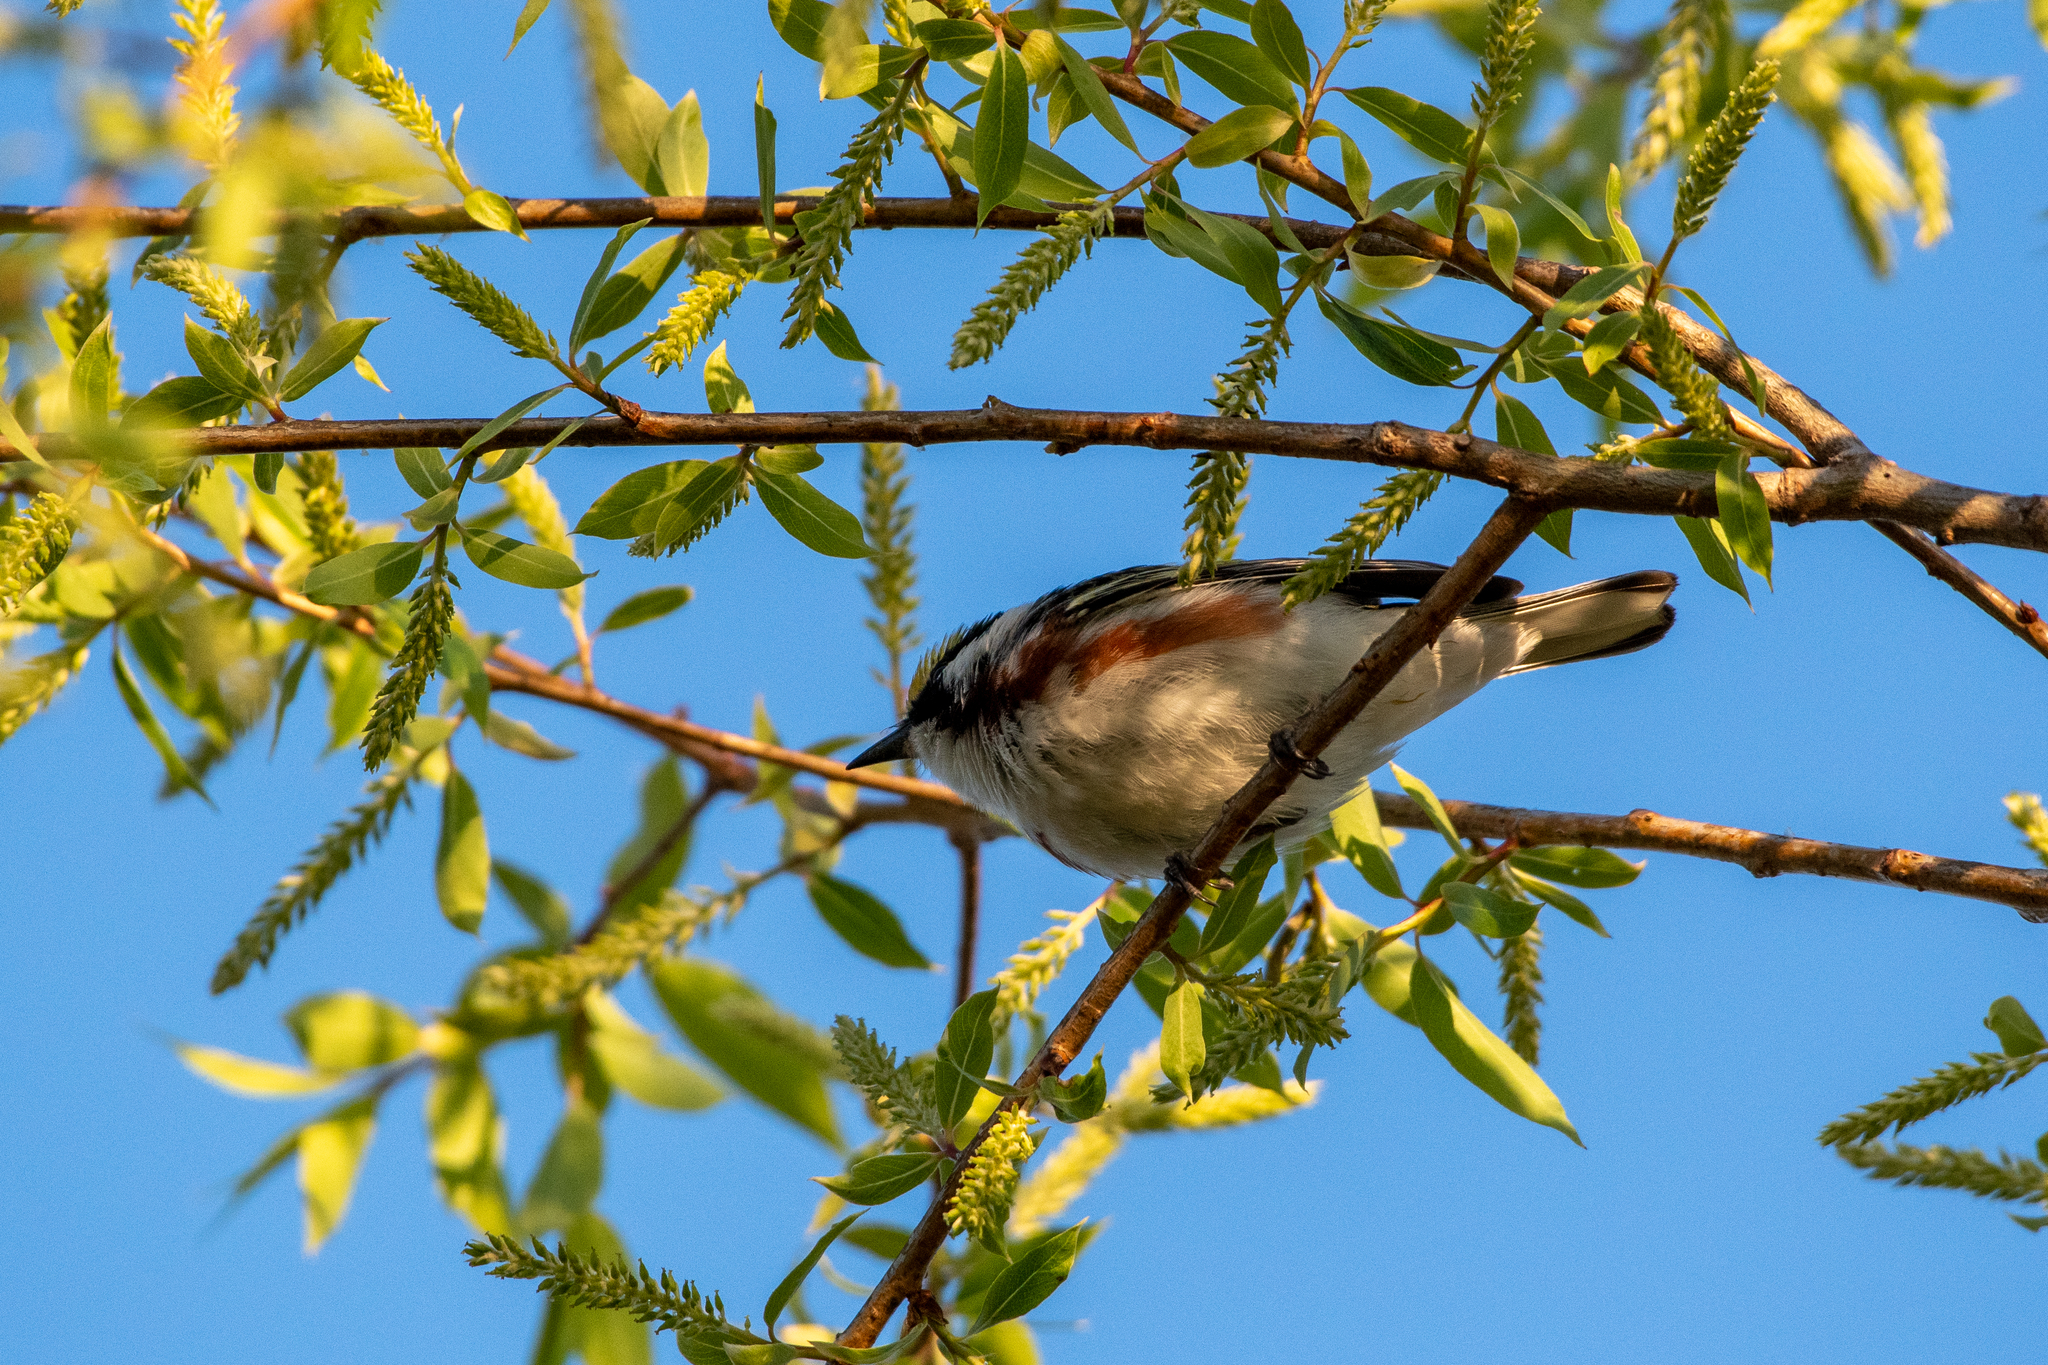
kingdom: Animalia
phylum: Chordata
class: Aves
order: Passeriformes
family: Parulidae
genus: Setophaga
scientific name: Setophaga pensylvanica
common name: Chestnut-sided warbler
